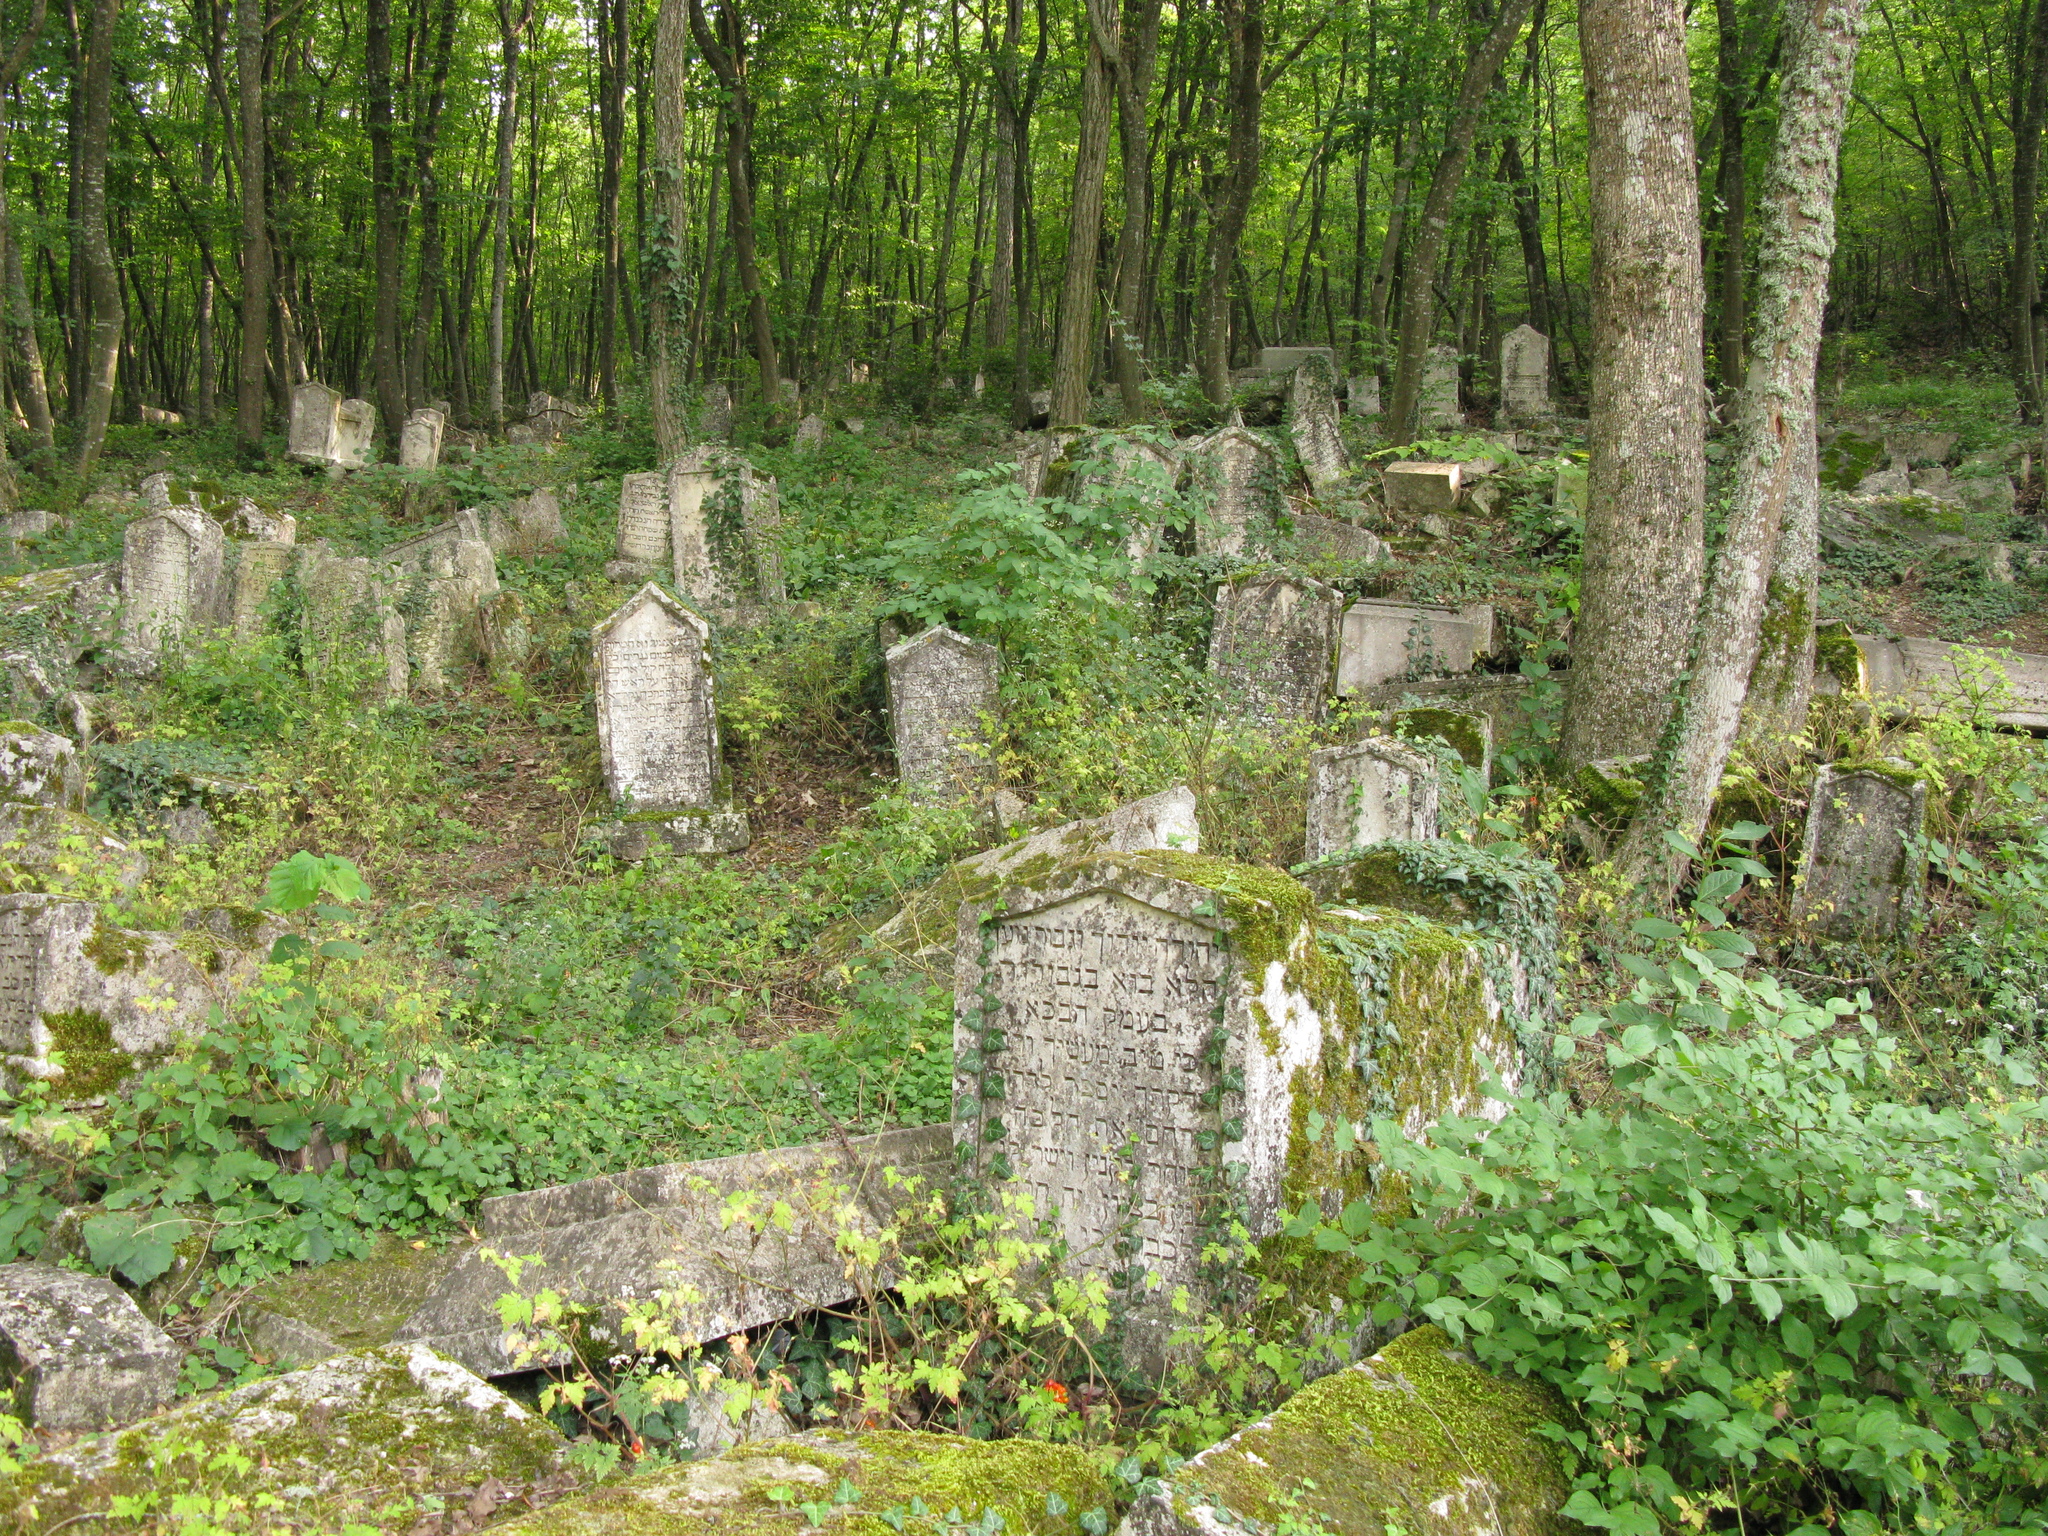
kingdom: Plantae
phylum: Tracheophyta
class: Magnoliopsida
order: Celastrales
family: Celastraceae
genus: Euonymus
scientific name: Euonymus latifolius
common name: Large-leaved spindle
